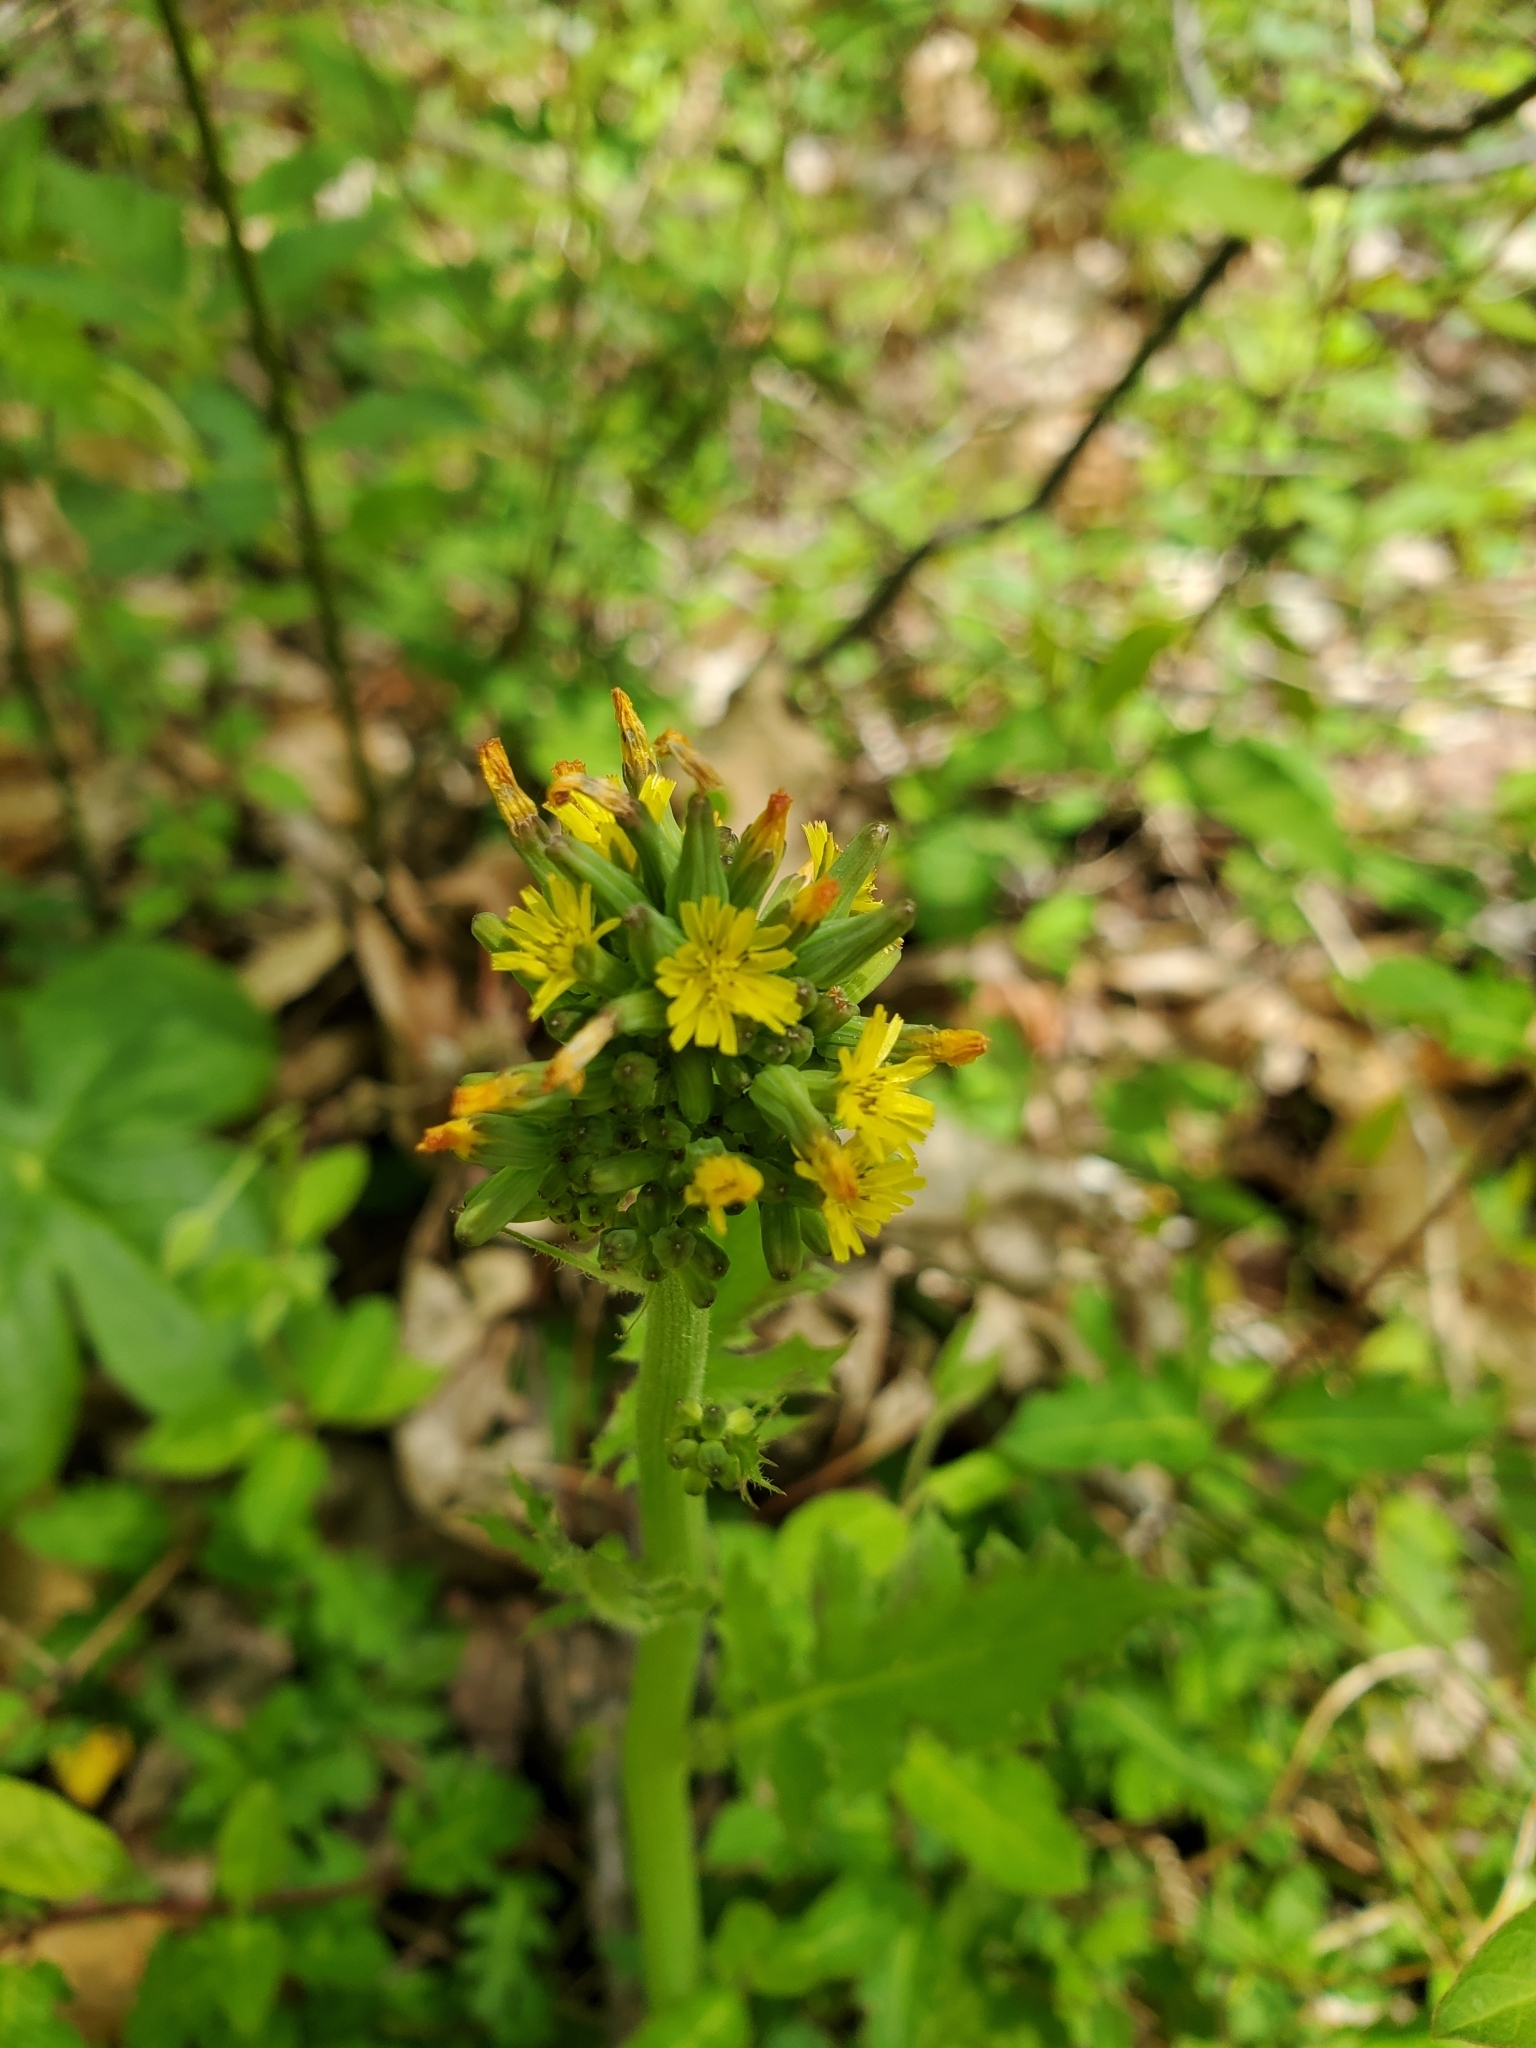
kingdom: Plantae
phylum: Tracheophyta
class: Magnoliopsida
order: Asterales
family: Asteraceae
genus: Youngia
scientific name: Youngia japonica
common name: Oriental false hawksbeard
